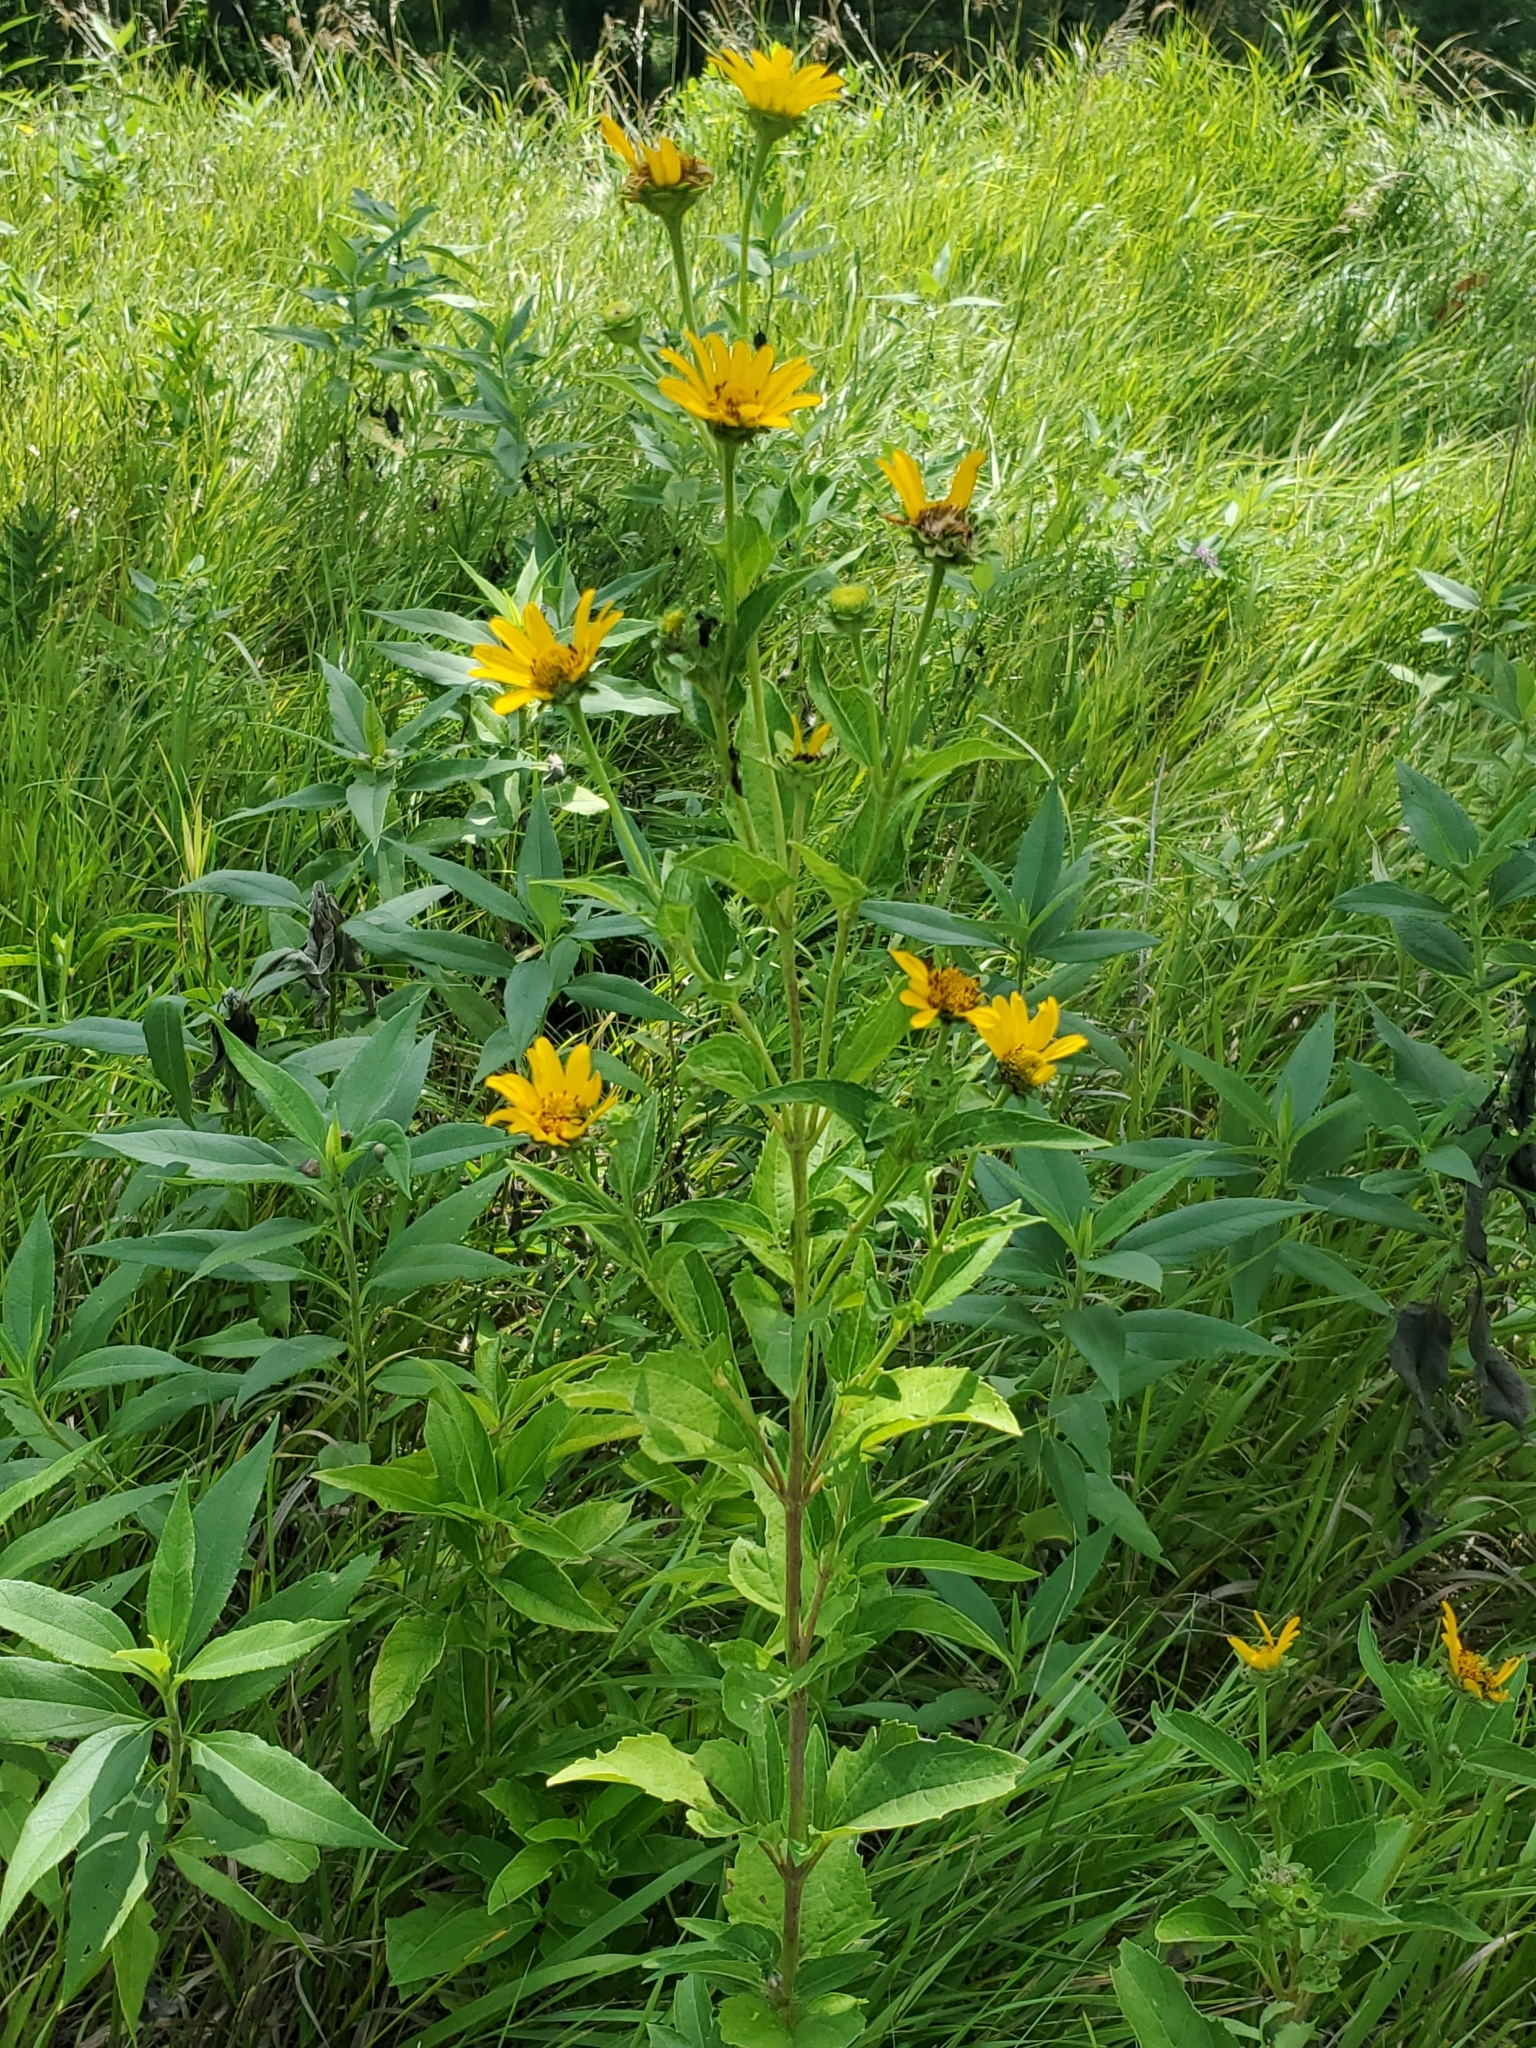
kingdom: Plantae
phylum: Tracheophyta
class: Magnoliopsida
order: Asterales
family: Asteraceae
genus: Helianthus
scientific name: Helianthus maximiliani
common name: Maximilian's sunflower
